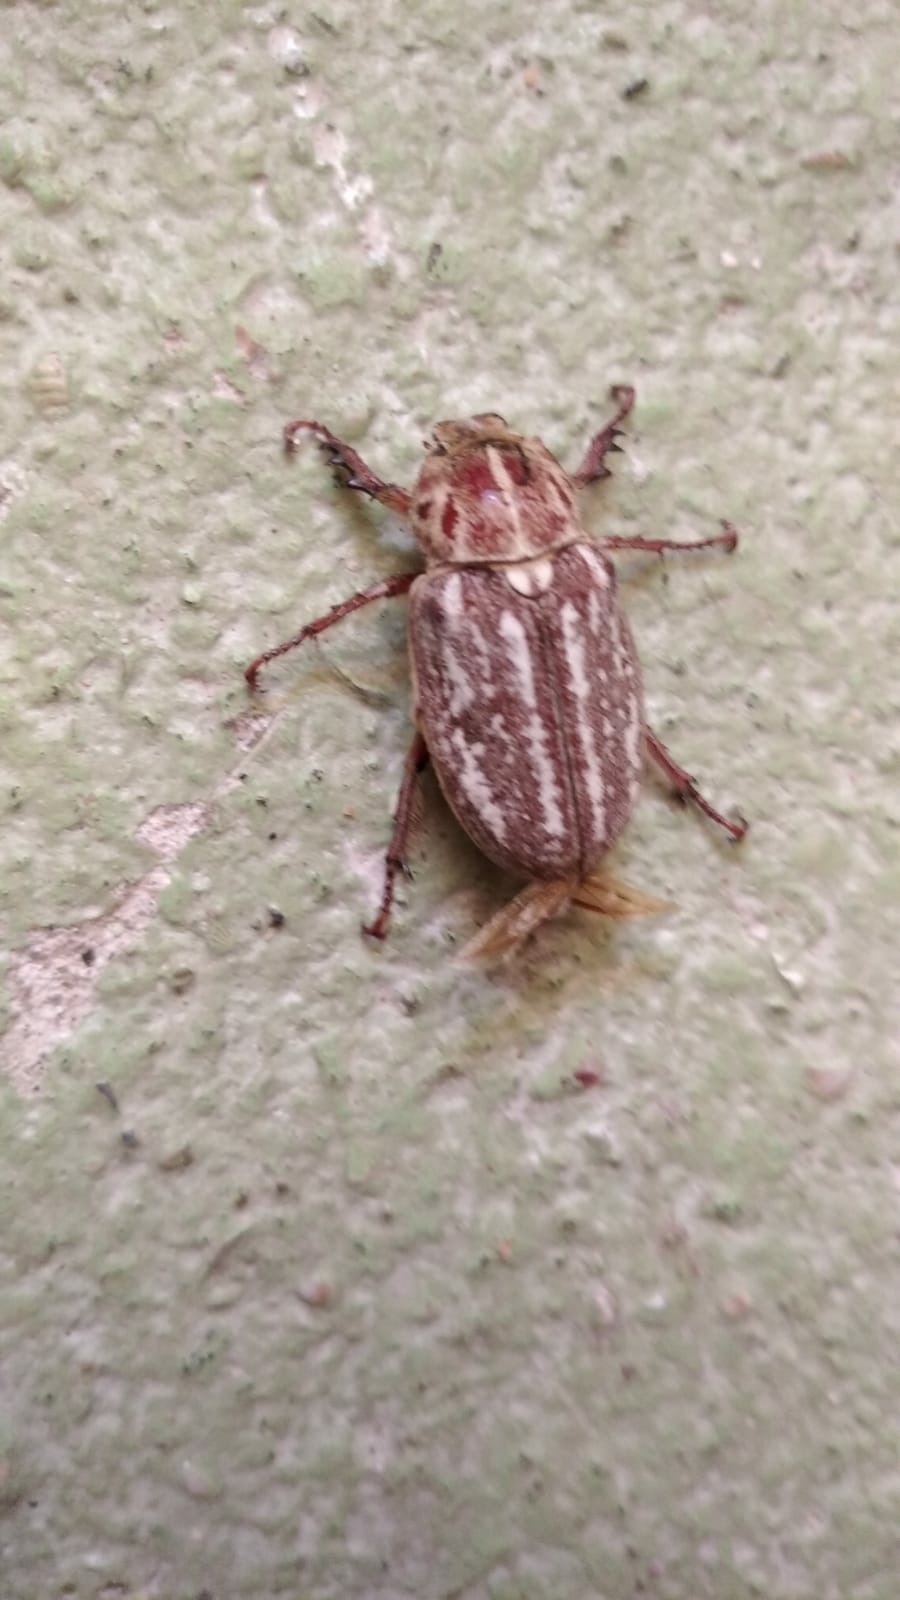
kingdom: Animalia
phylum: Arthropoda
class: Insecta
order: Coleoptera
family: Scarabaeidae
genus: Anoxia
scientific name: Anoxia orientalis
